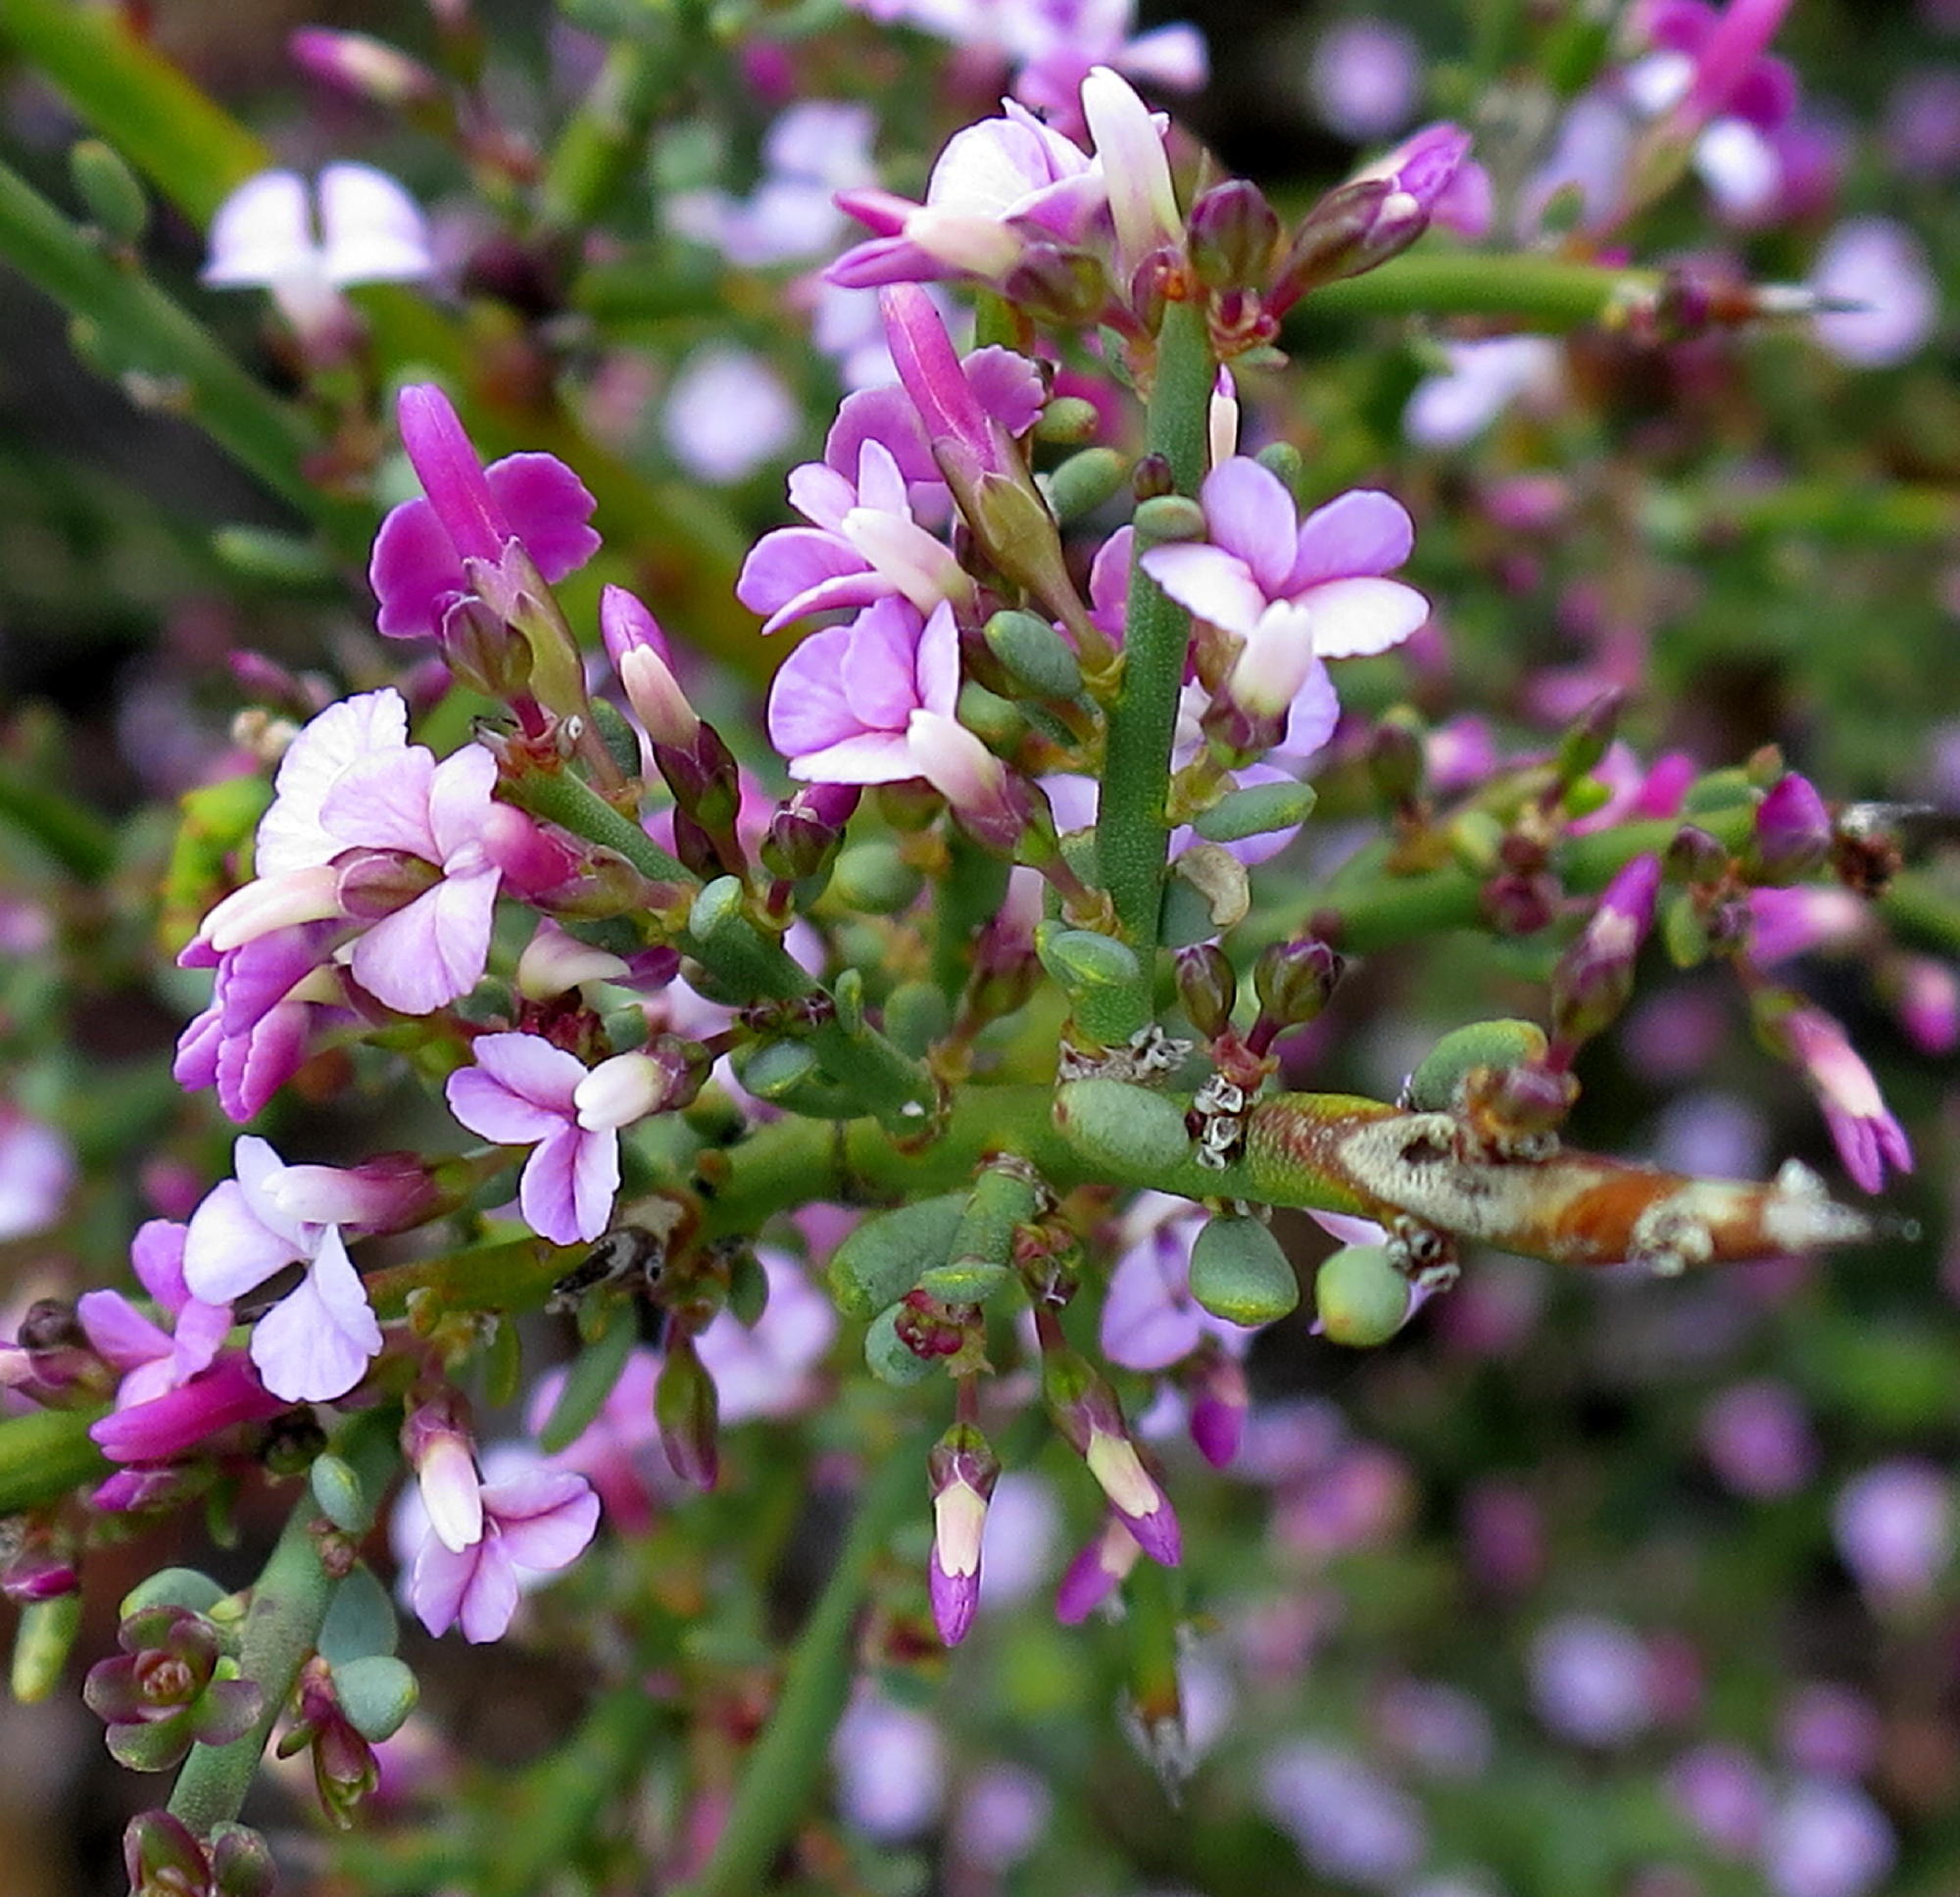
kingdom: Plantae
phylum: Tracheophyta
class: Magnoliopsida
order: Fabales
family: Polygalaceae
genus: Muraltia
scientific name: Muraltia spinosa
